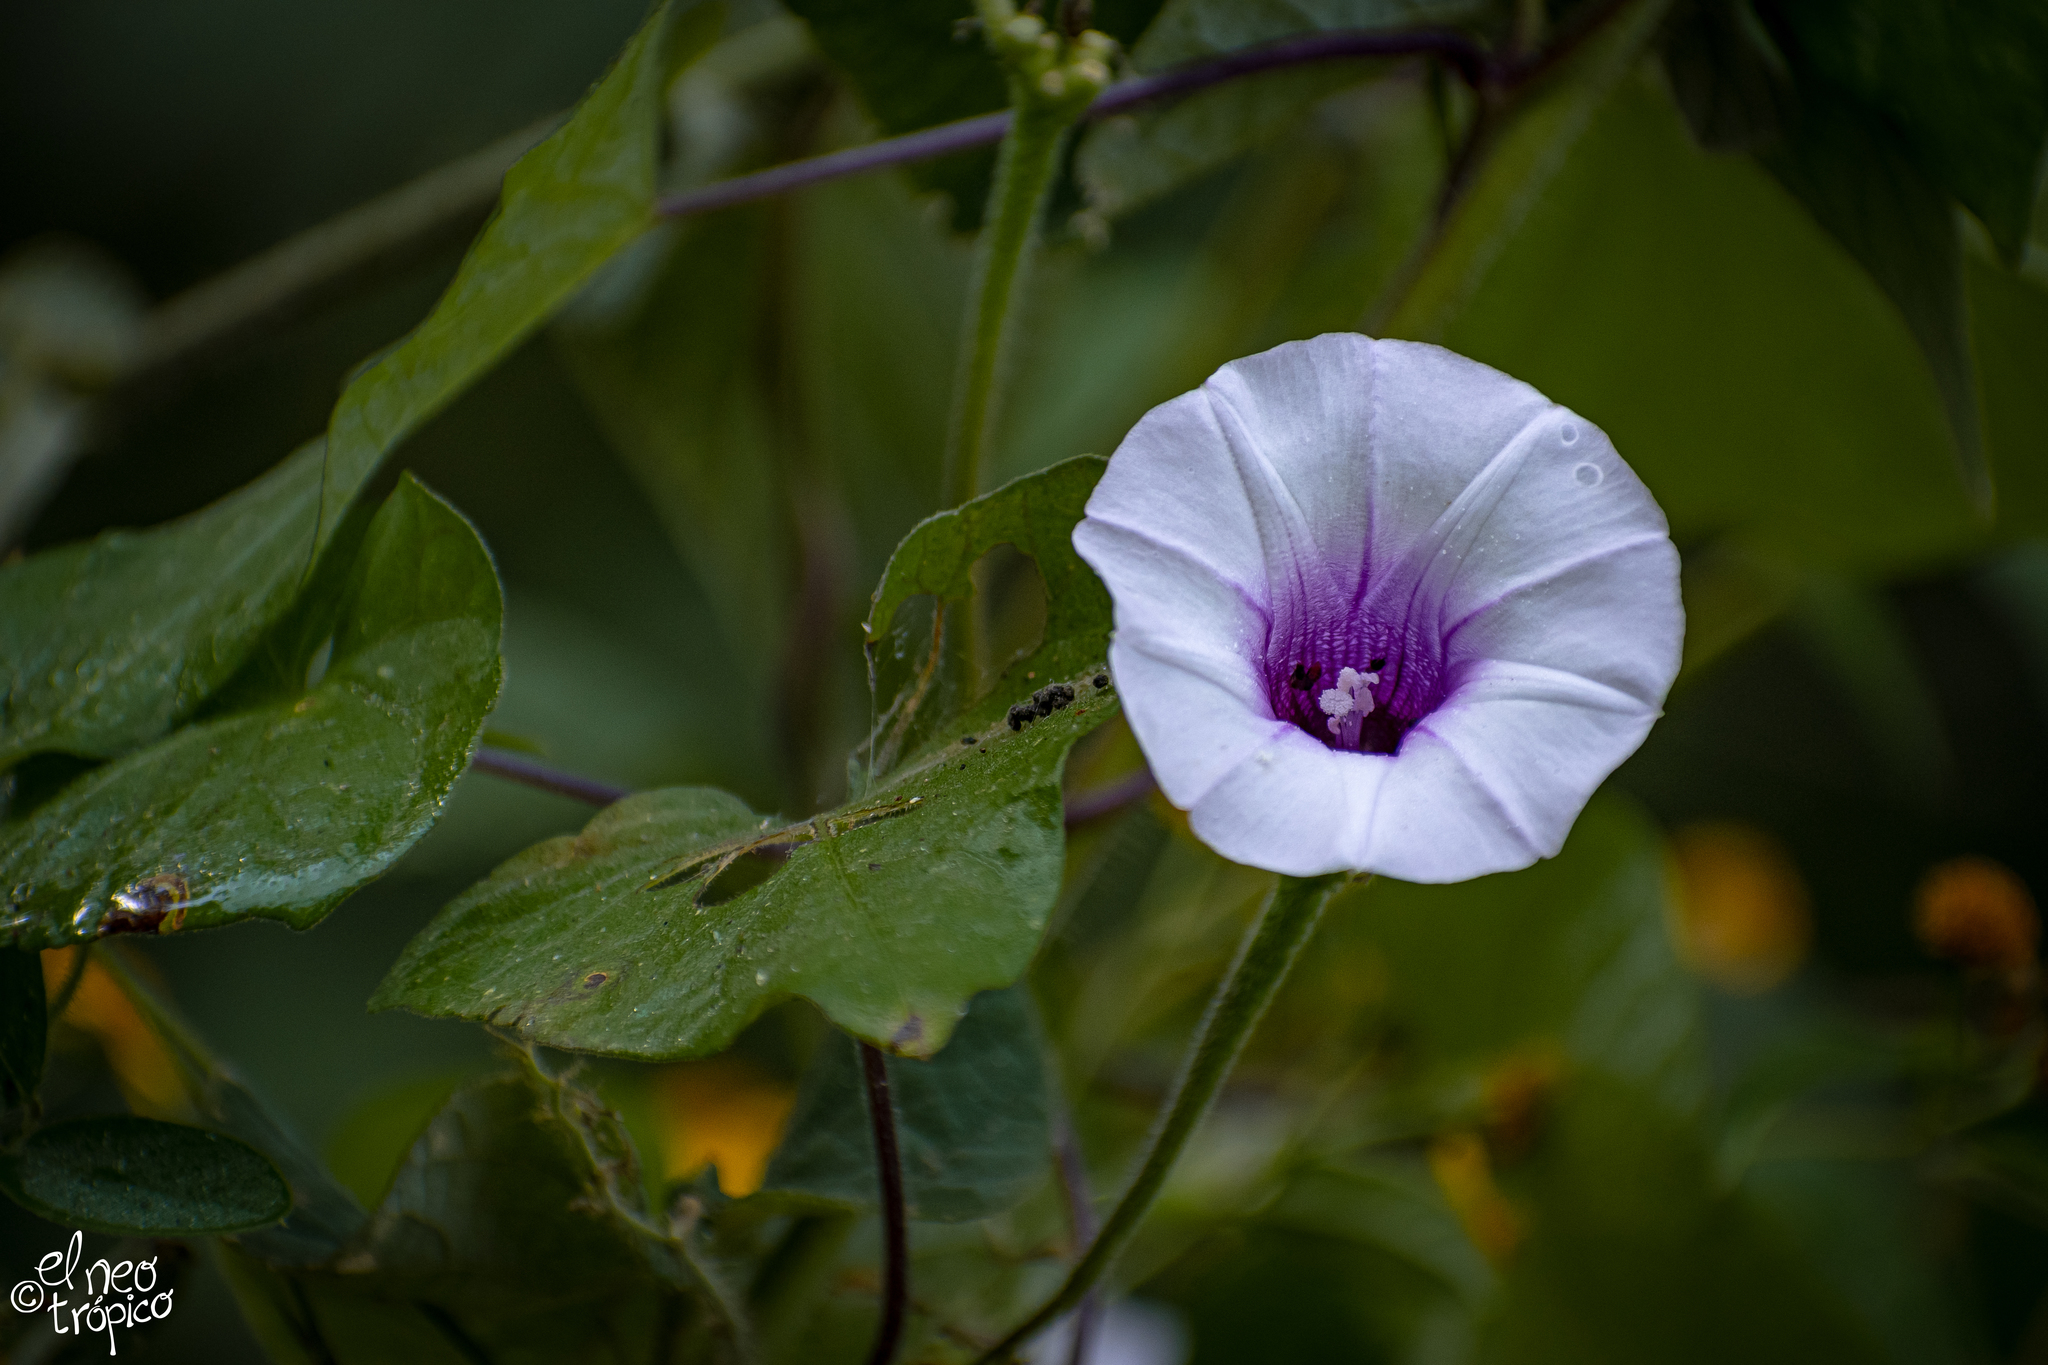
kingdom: Plantae
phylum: Tracheophyta
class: Magnoliopsida
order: Solanales
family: Convolvulaceae
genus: Ipomoea
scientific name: Ipomoea batatas
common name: Sweet-potato
